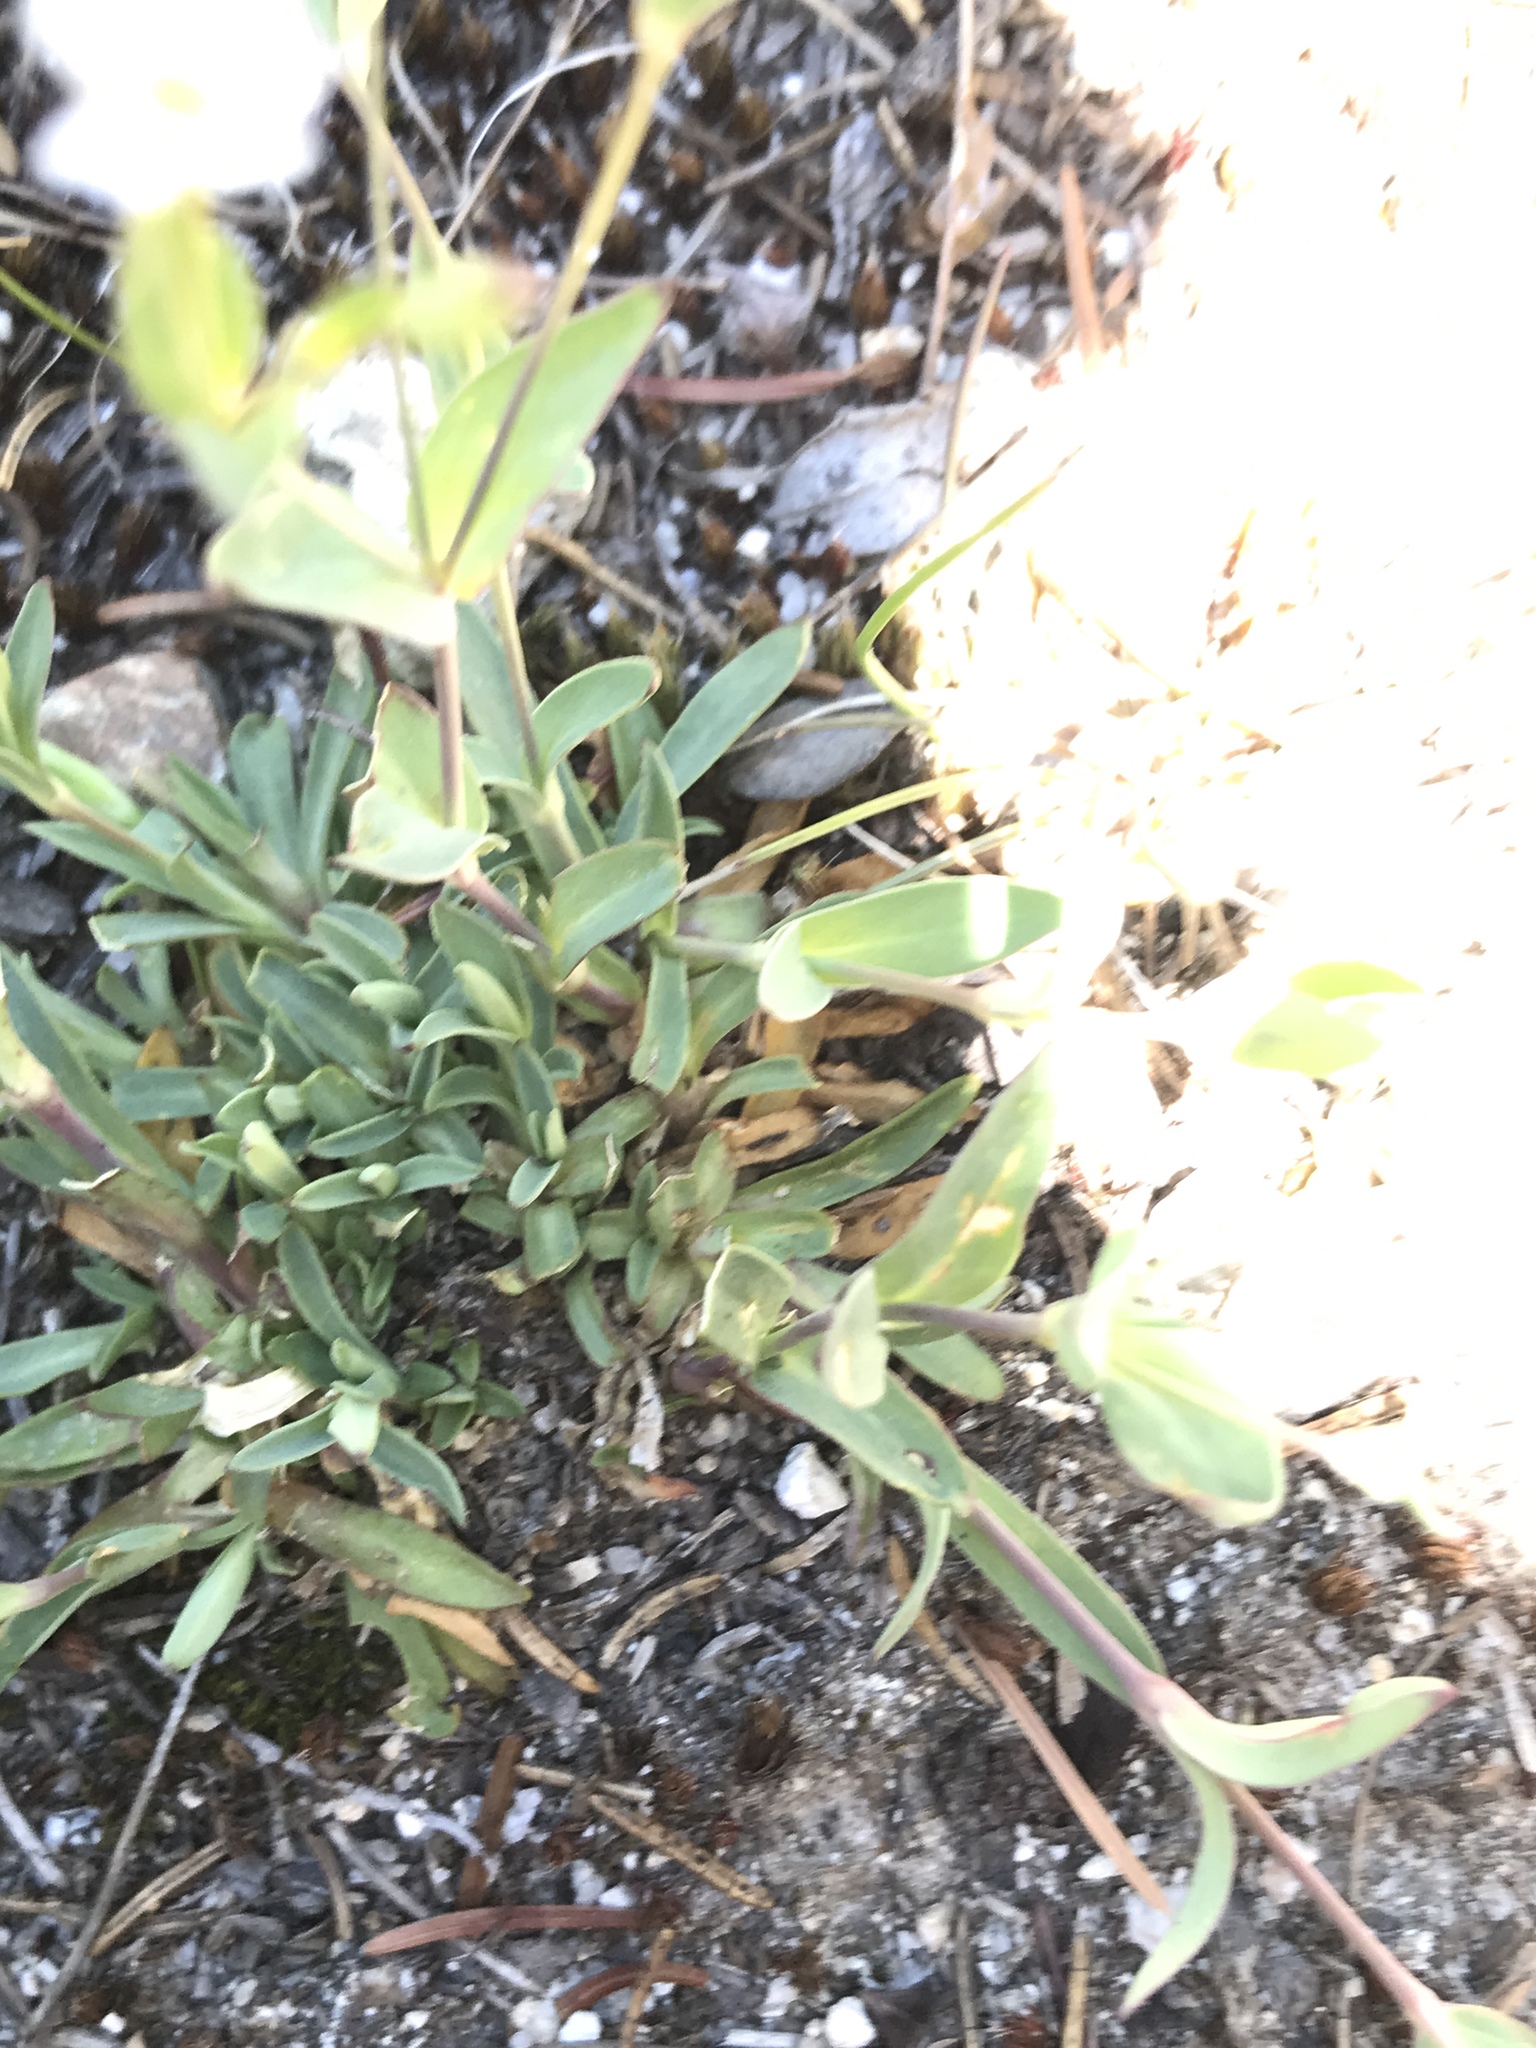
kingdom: Plantae
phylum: Tracheophyta
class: Magnoliopsida
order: Caryophyllales
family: Caryophyllaceae
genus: Atocion
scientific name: Atocion rupestre
